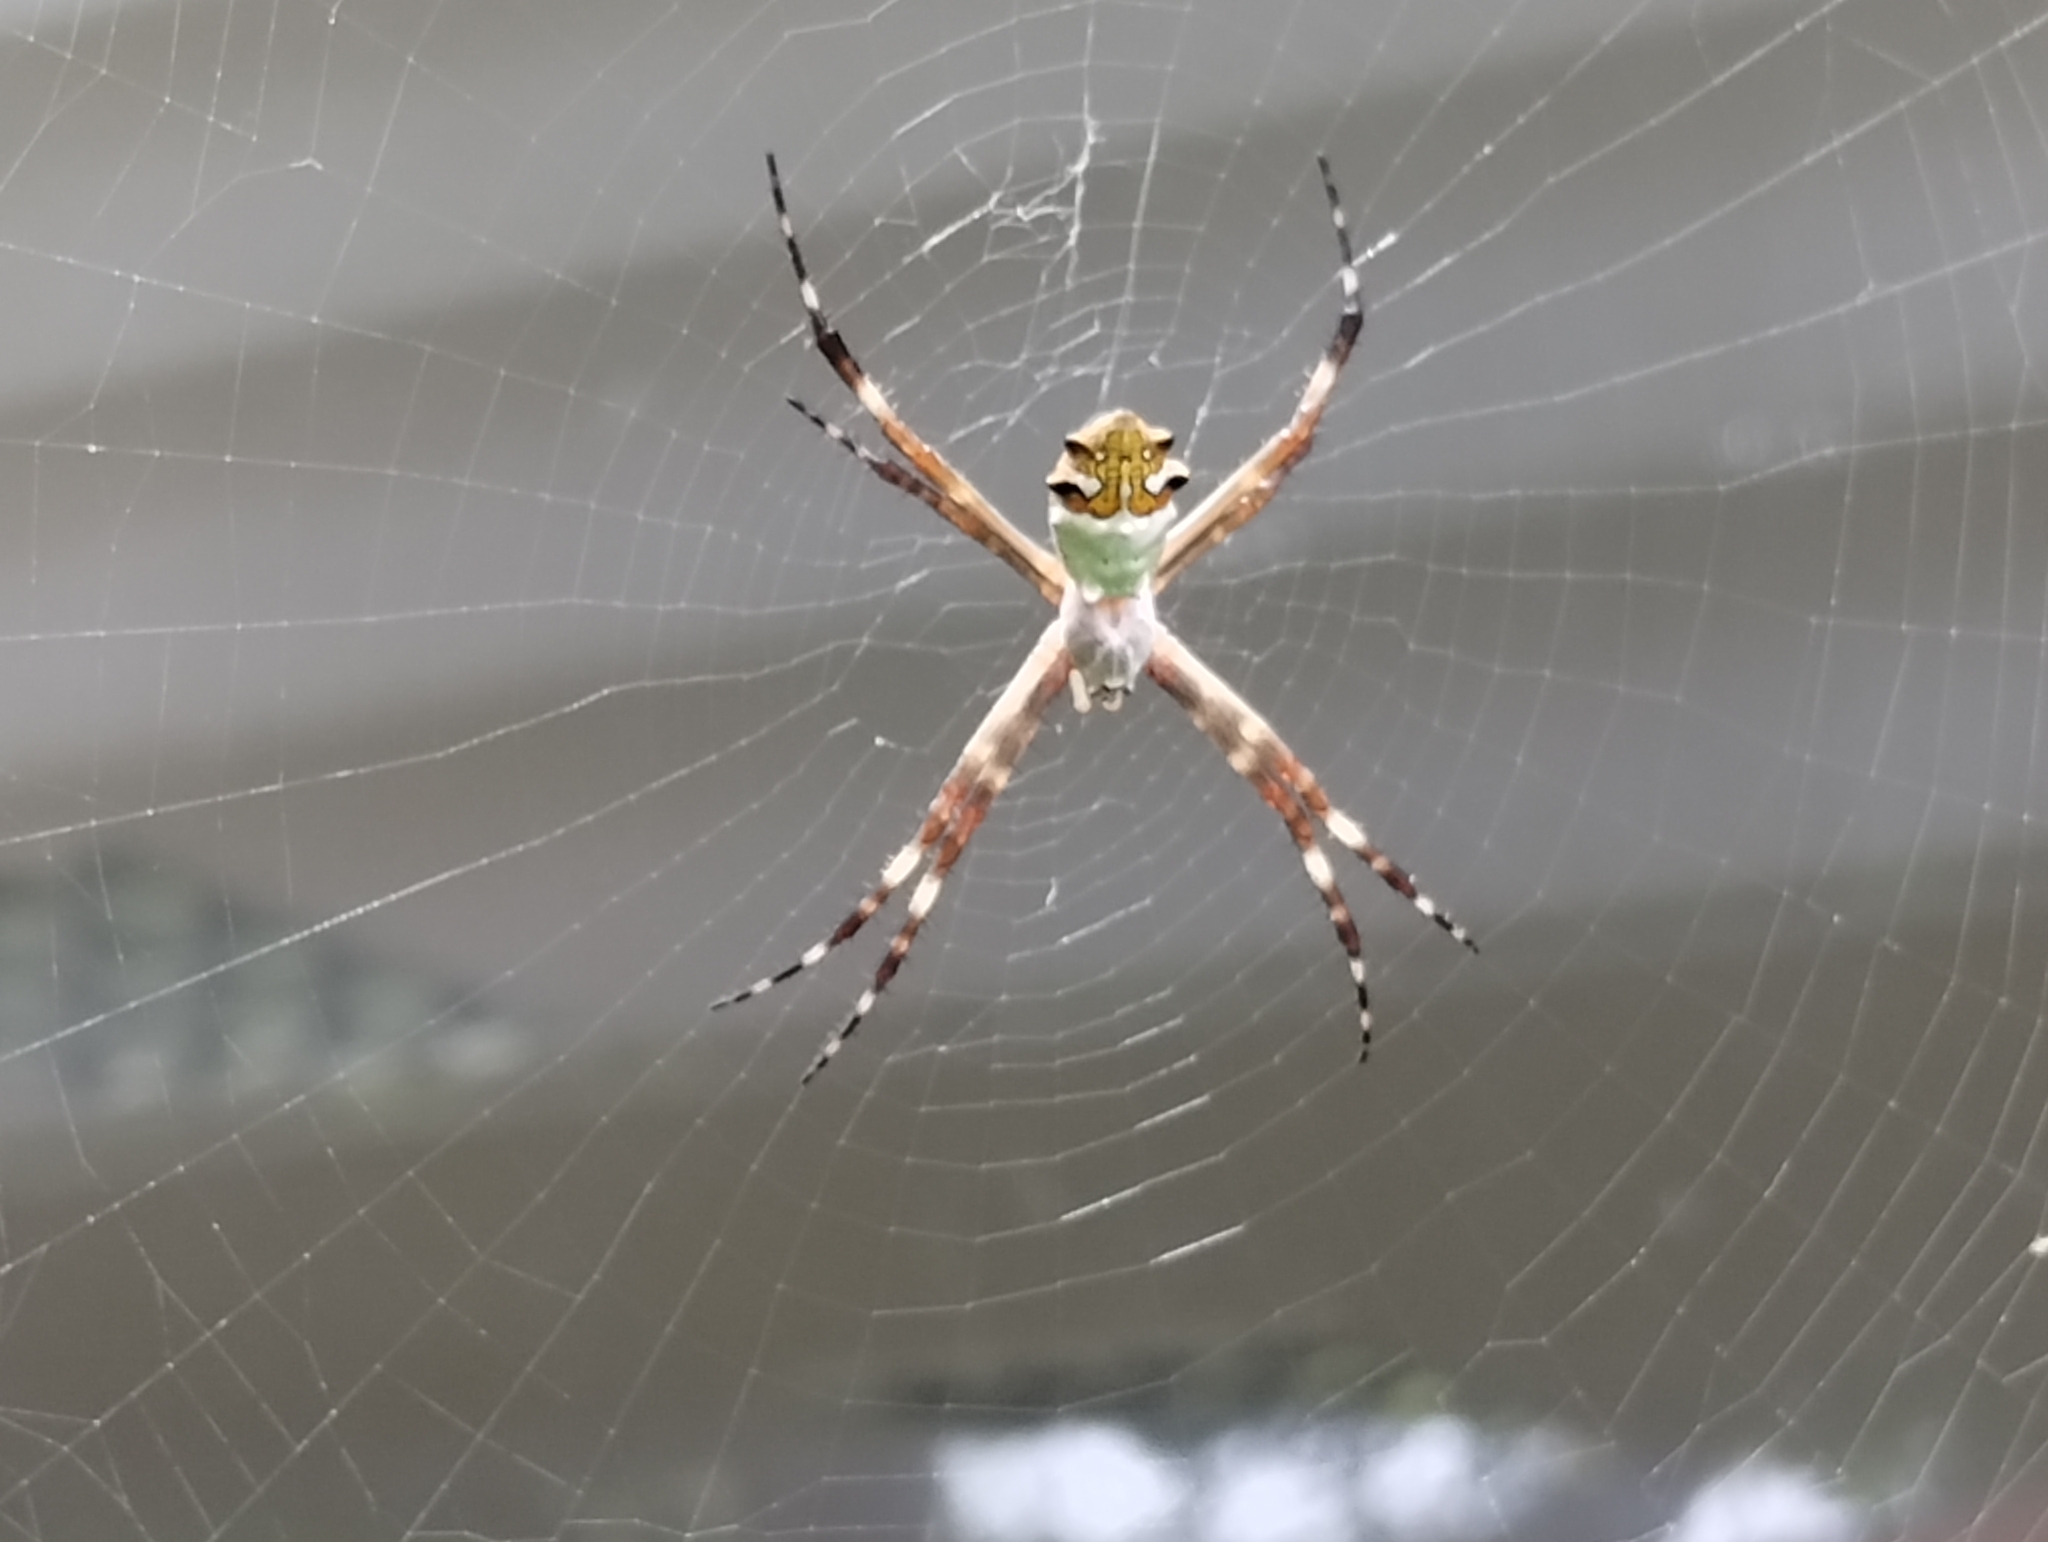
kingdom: Animalia
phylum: Arthropoda
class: Arachnida
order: Araneae
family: Araneidae
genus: Argiope
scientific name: Argiope argentata
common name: Orb weavers
